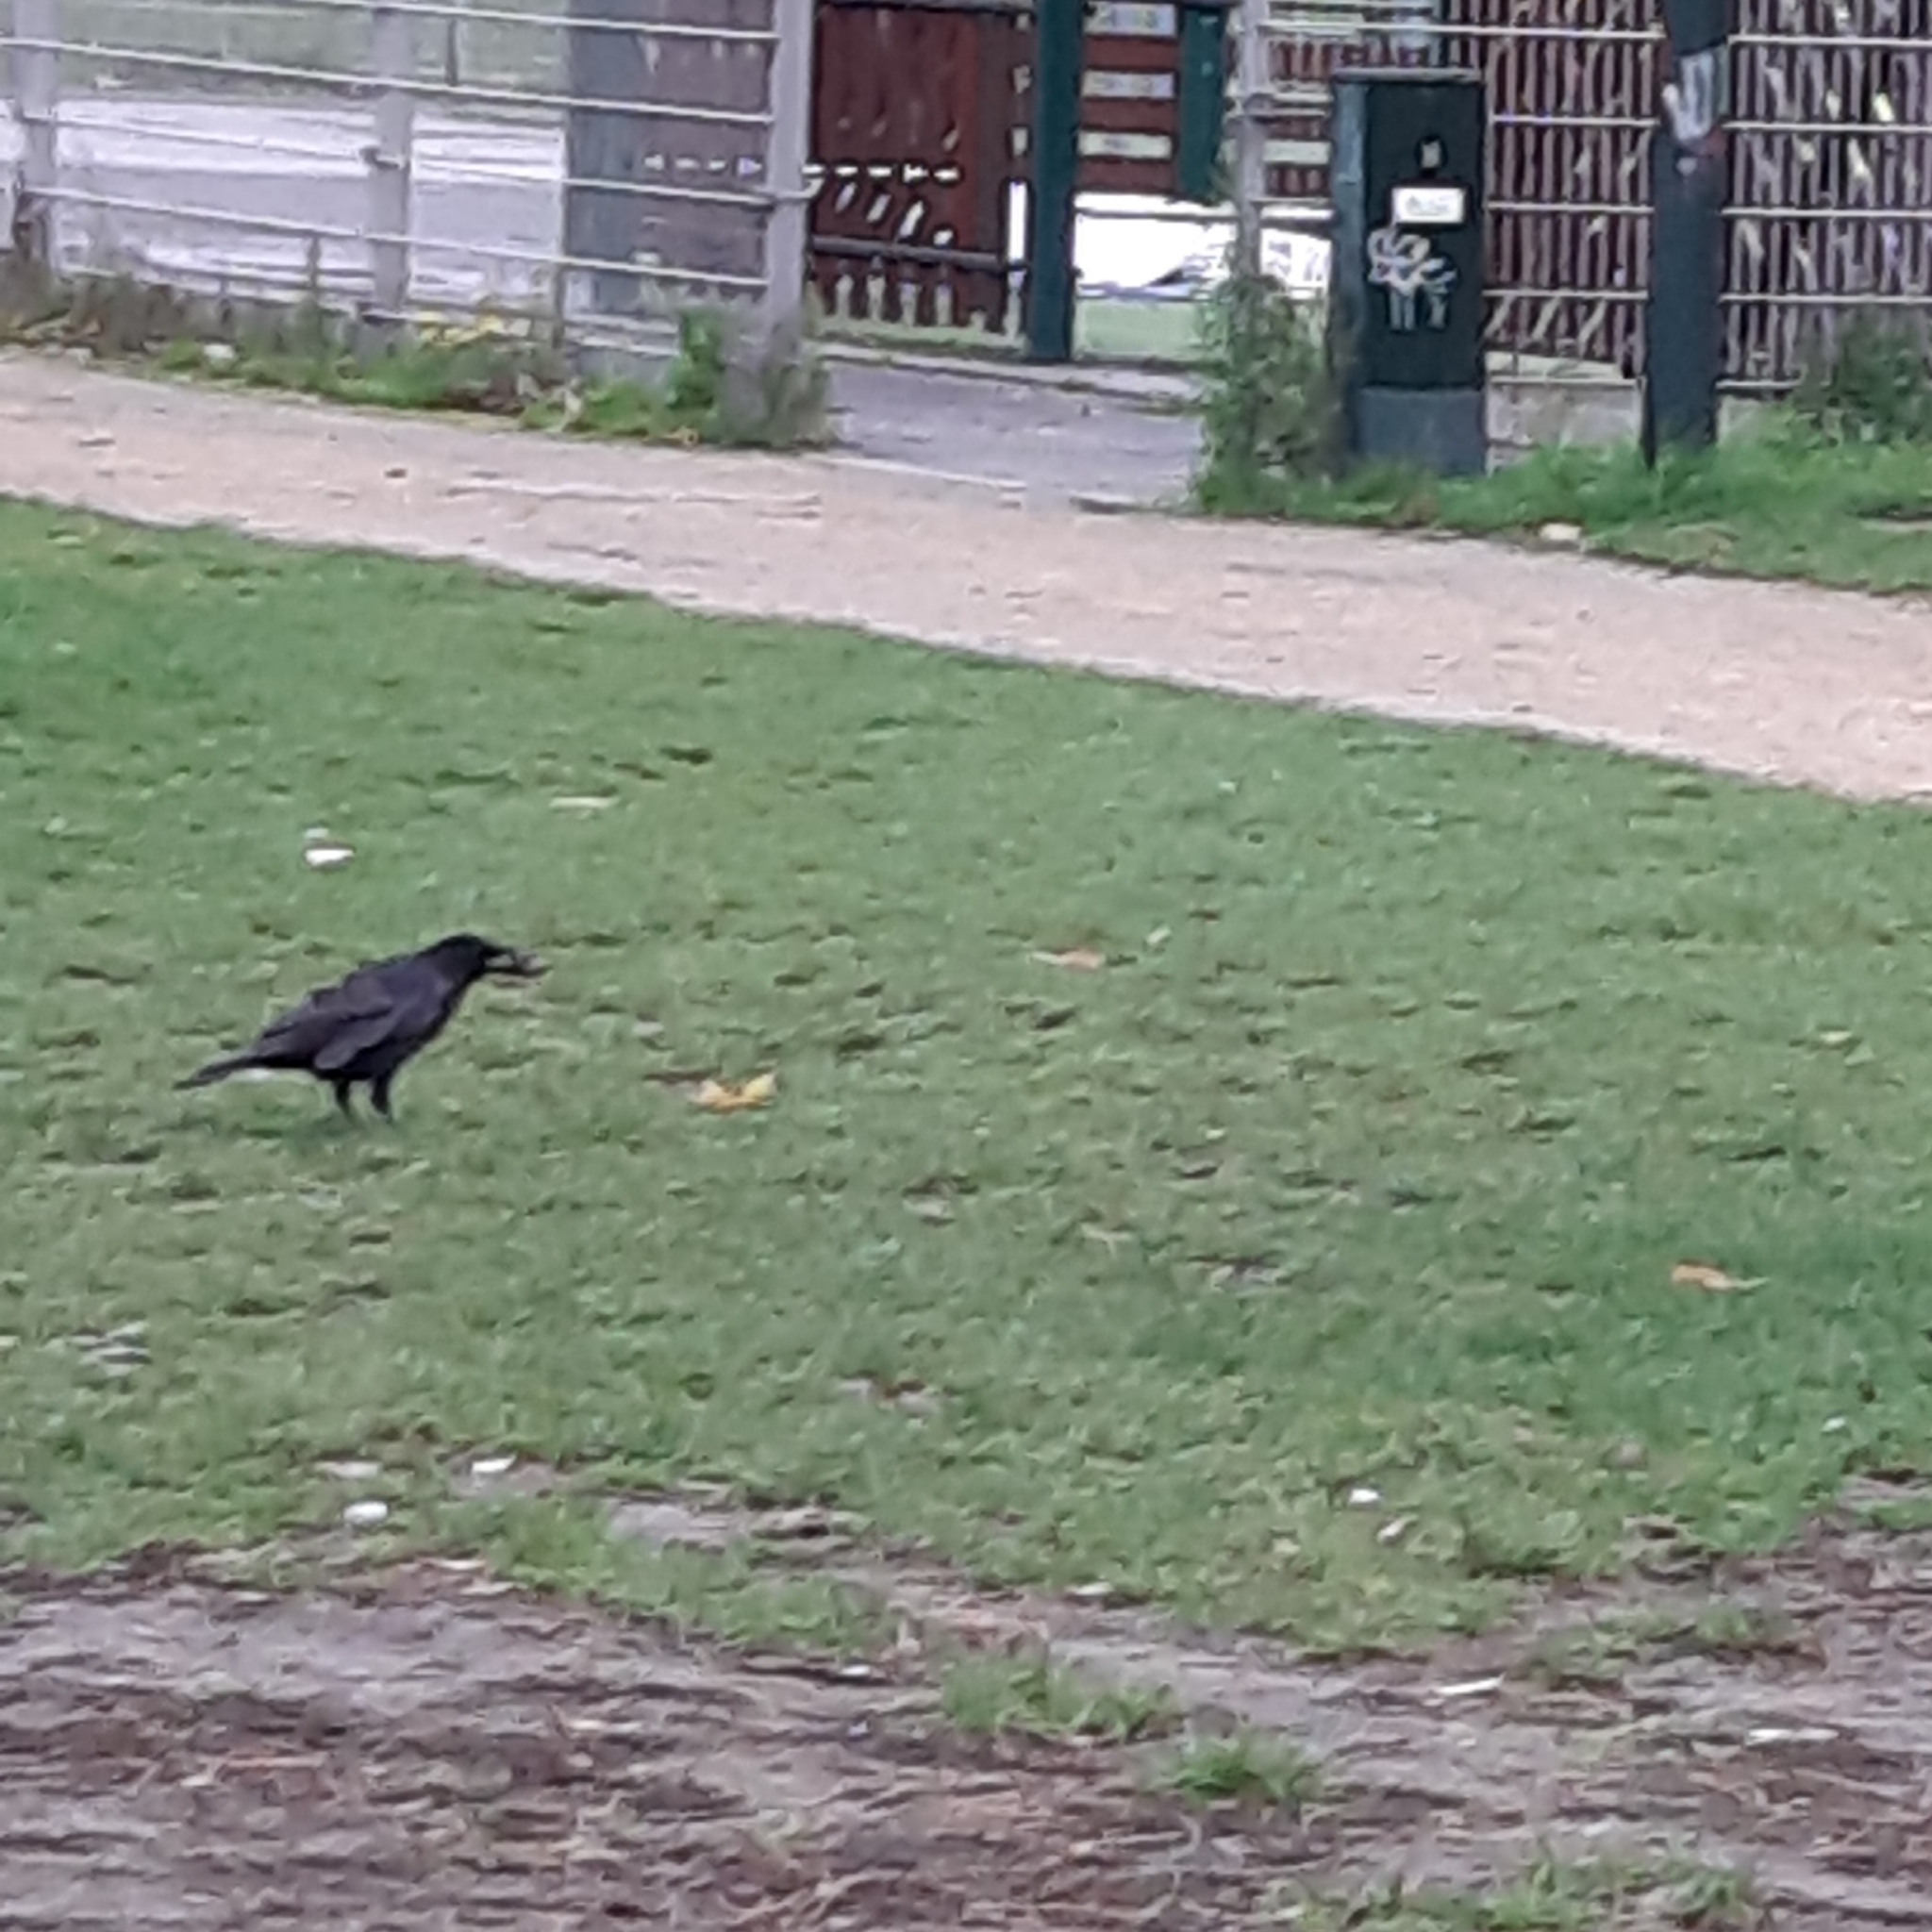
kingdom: Animalia
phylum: Chordata
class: Aves
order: Passeriformes
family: Corvidae
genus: Corvus
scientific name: Corvus corone
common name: Carrion crow
